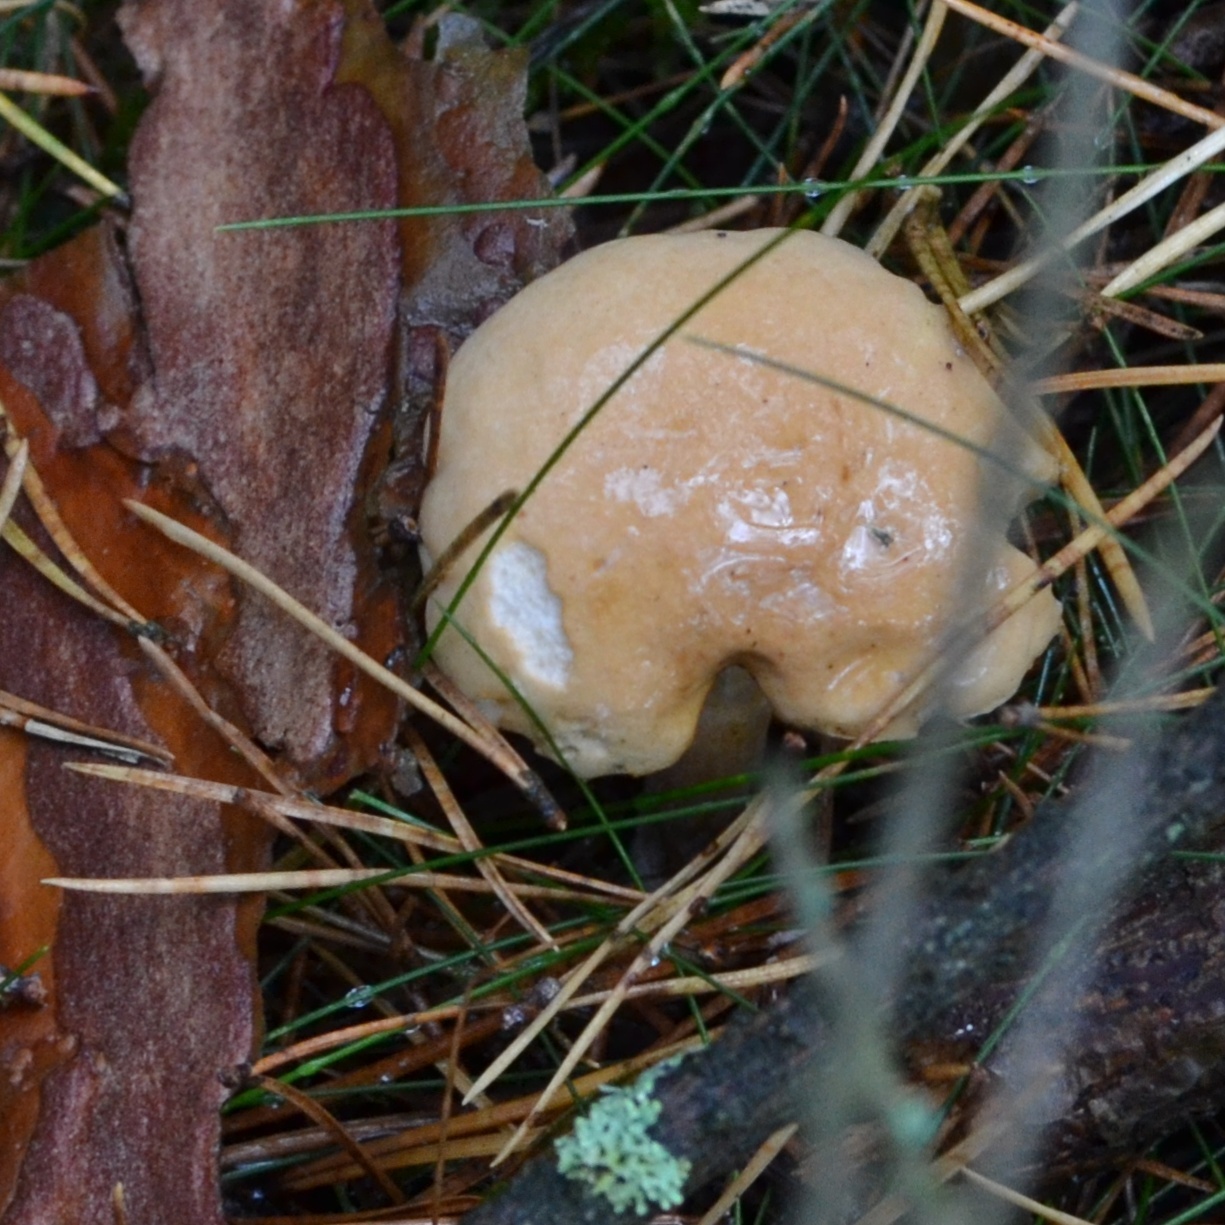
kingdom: Fungi
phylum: Basidiomycota
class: Agaricomycetes
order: Boletales
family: Suillaceae
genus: Suillus
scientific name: Suillus bovinus
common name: Bovine bolete
